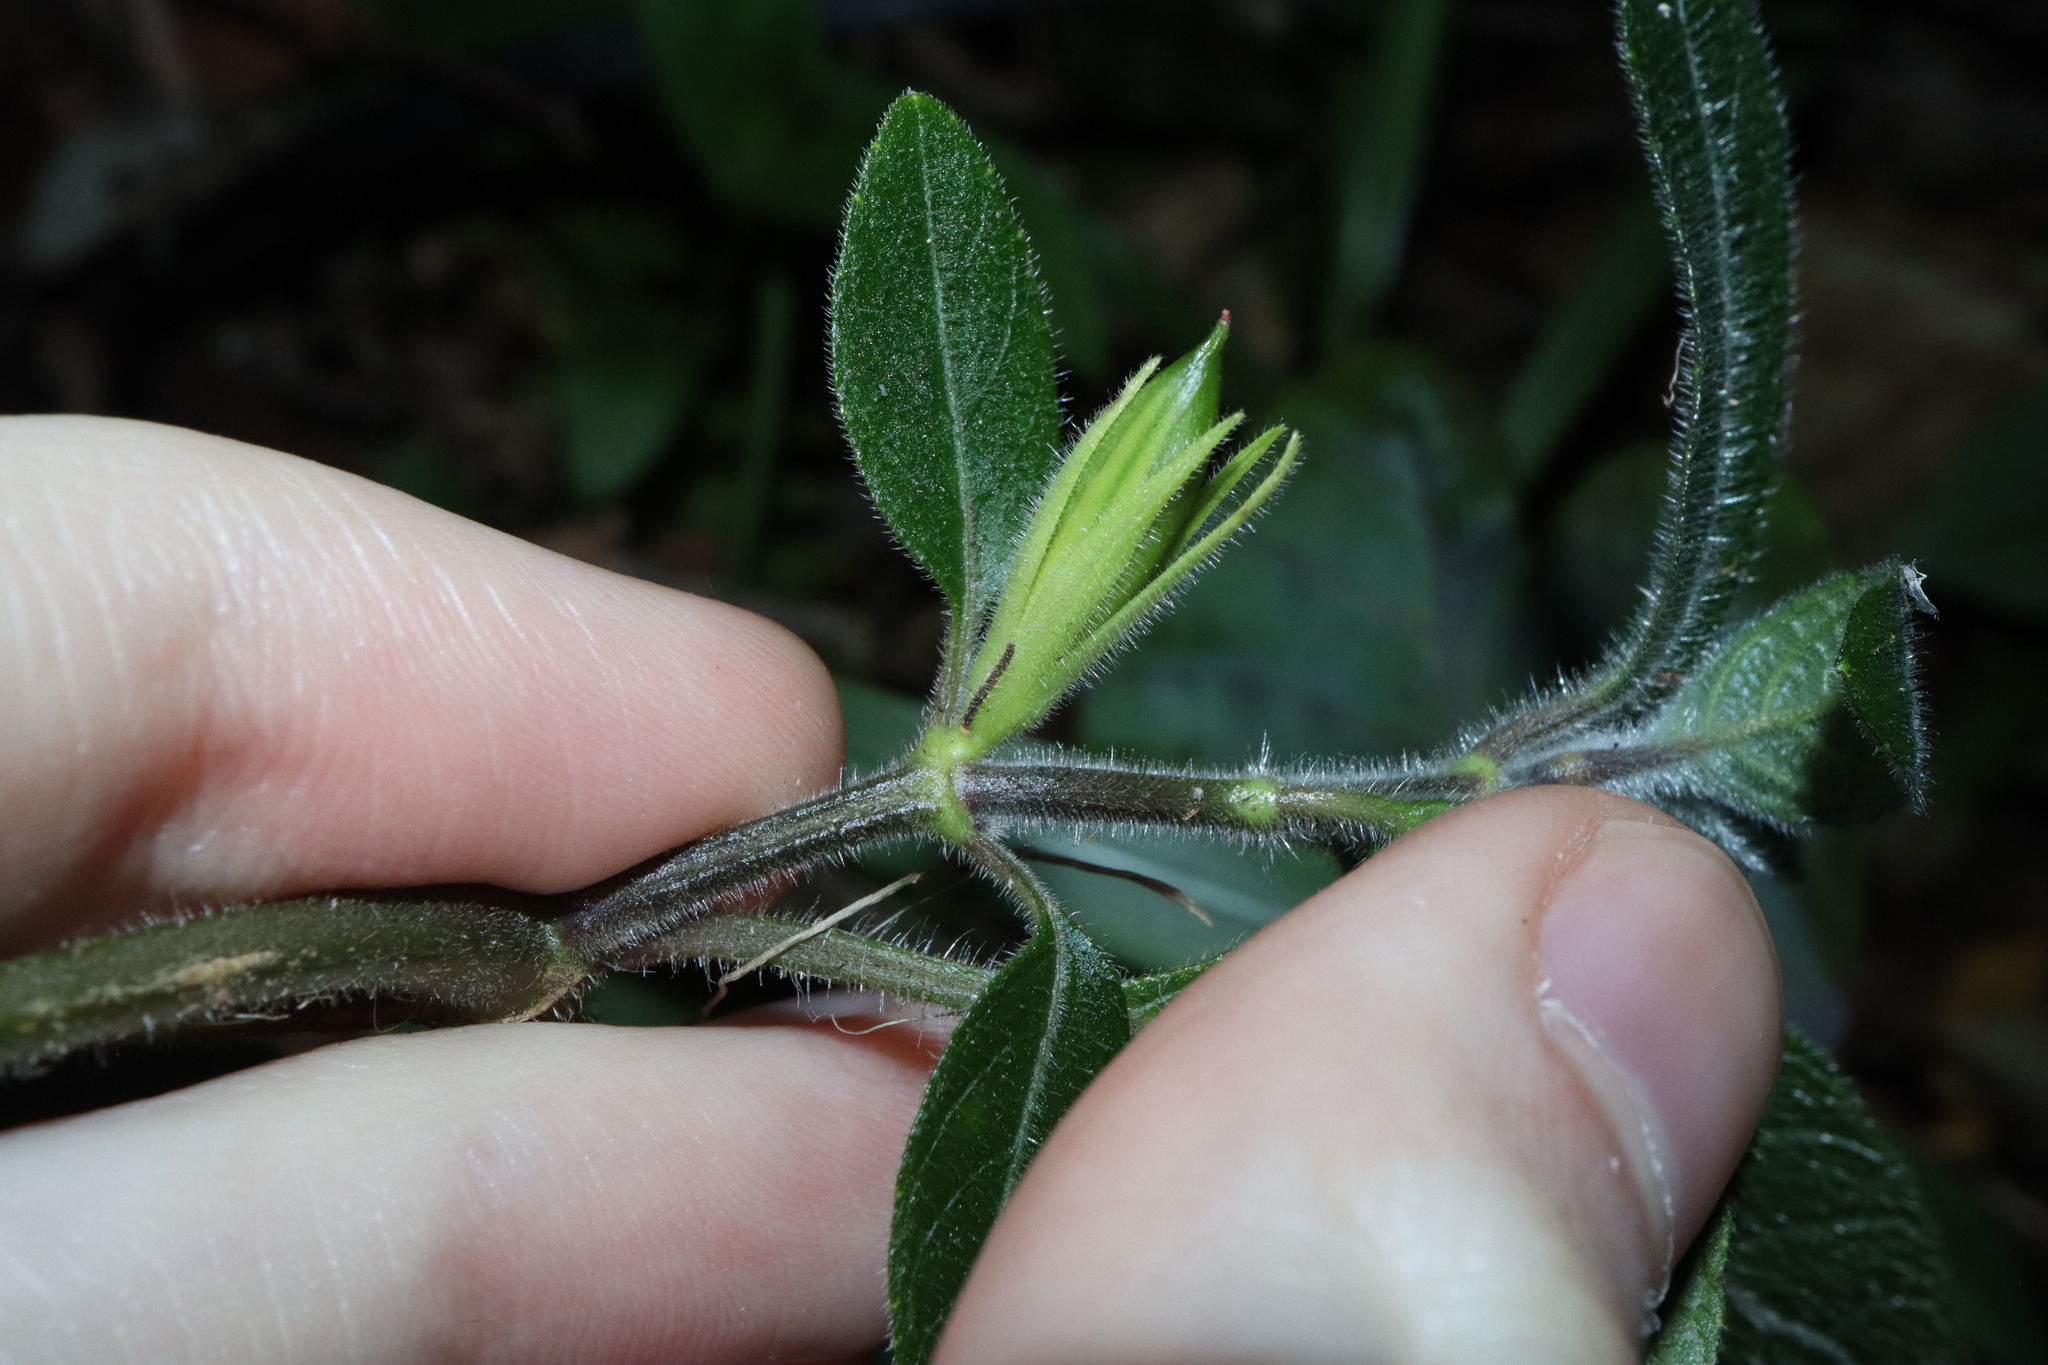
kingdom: Plantae
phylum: Tracheophyta
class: Magnoliopsida
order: Lamiales
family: Acanthaceae
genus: Ruellia
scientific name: Ruellia squarrosa
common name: Water bluebell
